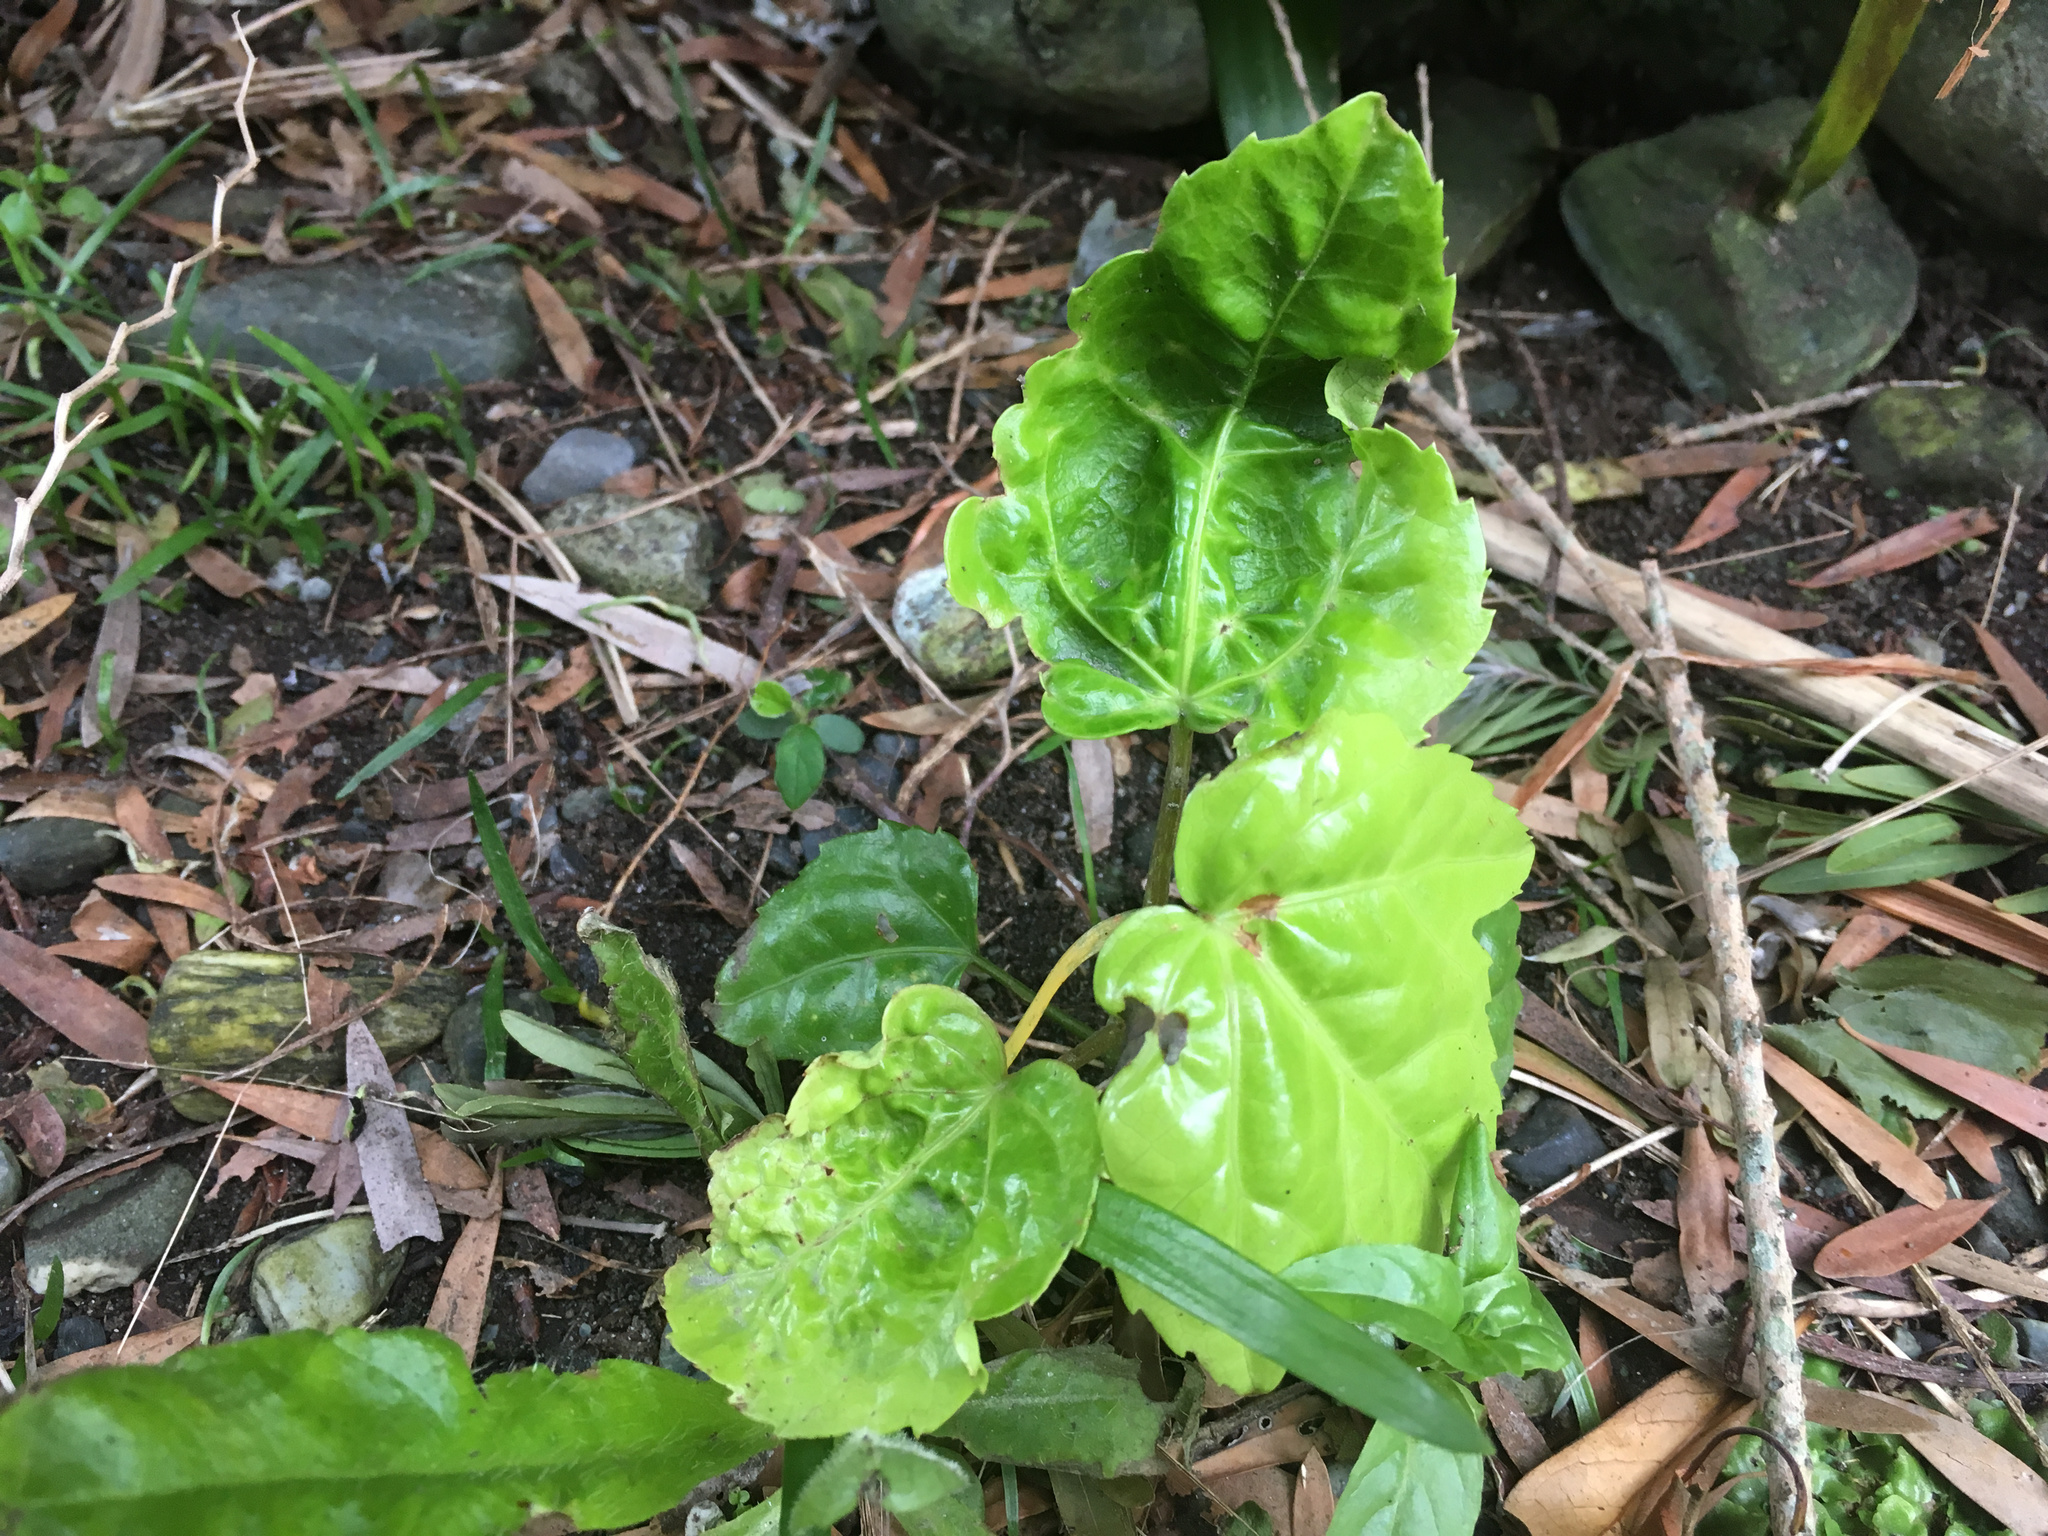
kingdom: Plantae
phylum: Tracheophyta
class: Magnoliopsida
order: Apiales
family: Araliaceae
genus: Fatsia
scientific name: Fatsia japonica
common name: Fatsia
